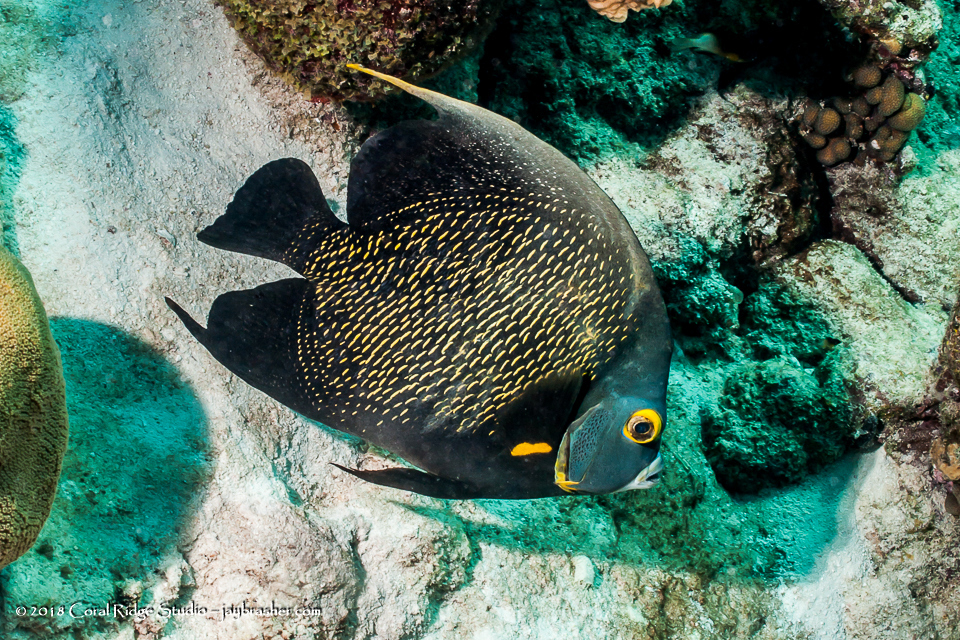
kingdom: Animalia
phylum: Chordata
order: Perciformes
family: Pomacanthidae
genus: Pomacanthus
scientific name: Pomacanthus paru
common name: French angelfish
